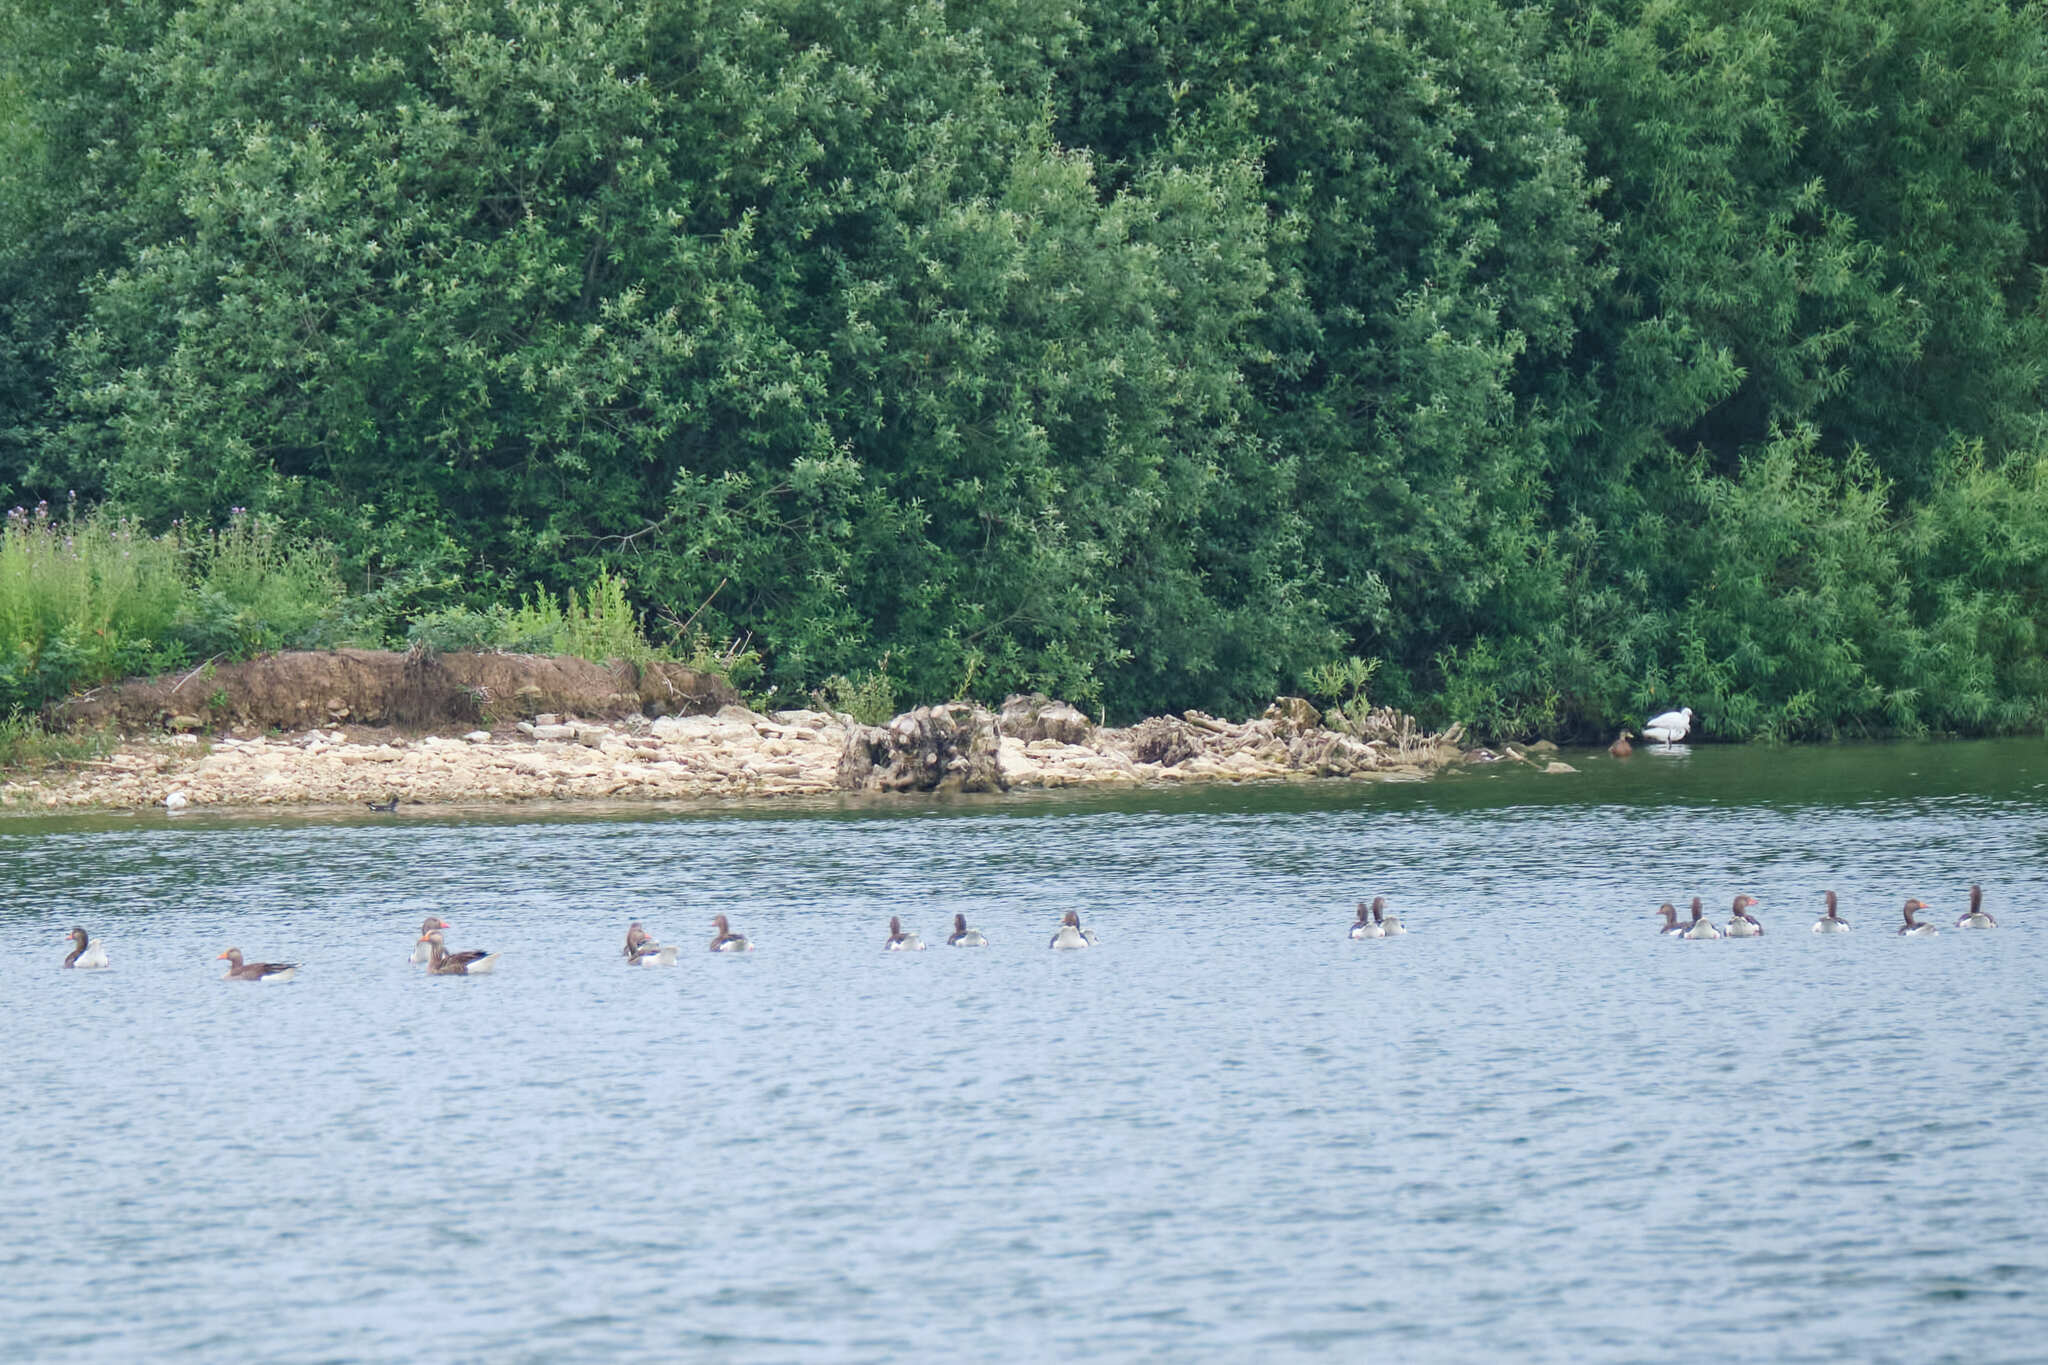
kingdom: Animalia
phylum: Chordata
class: Aves
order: Anseriformes
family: Anatidae
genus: Anser
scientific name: Anser anser
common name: Greylag goose
